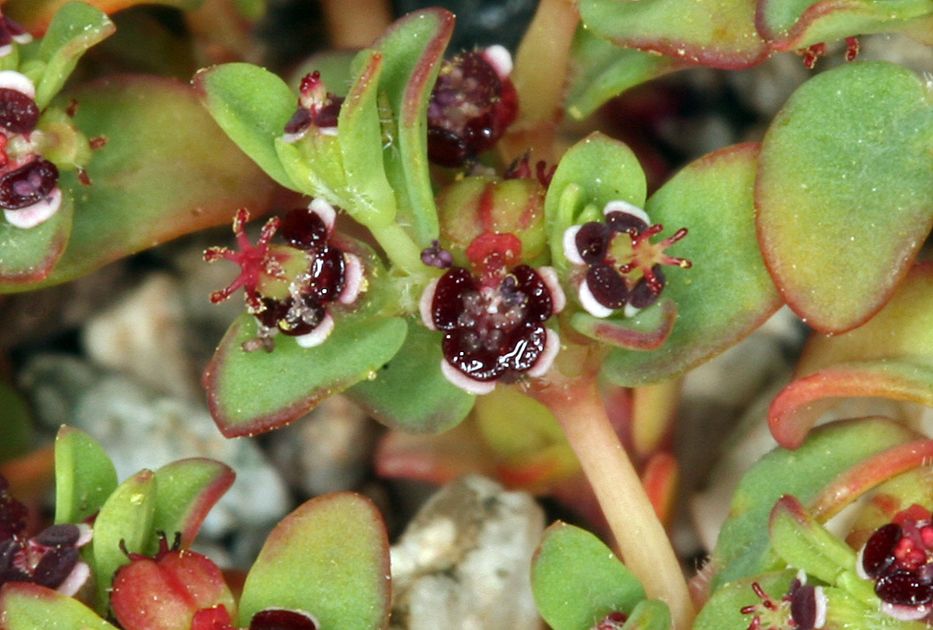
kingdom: Plantae
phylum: Tracheophyta
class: Magnoliopsida
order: Malpighiales
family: Euphorbiaceae
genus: Euphorbia
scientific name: Euphorbia polycarpa
